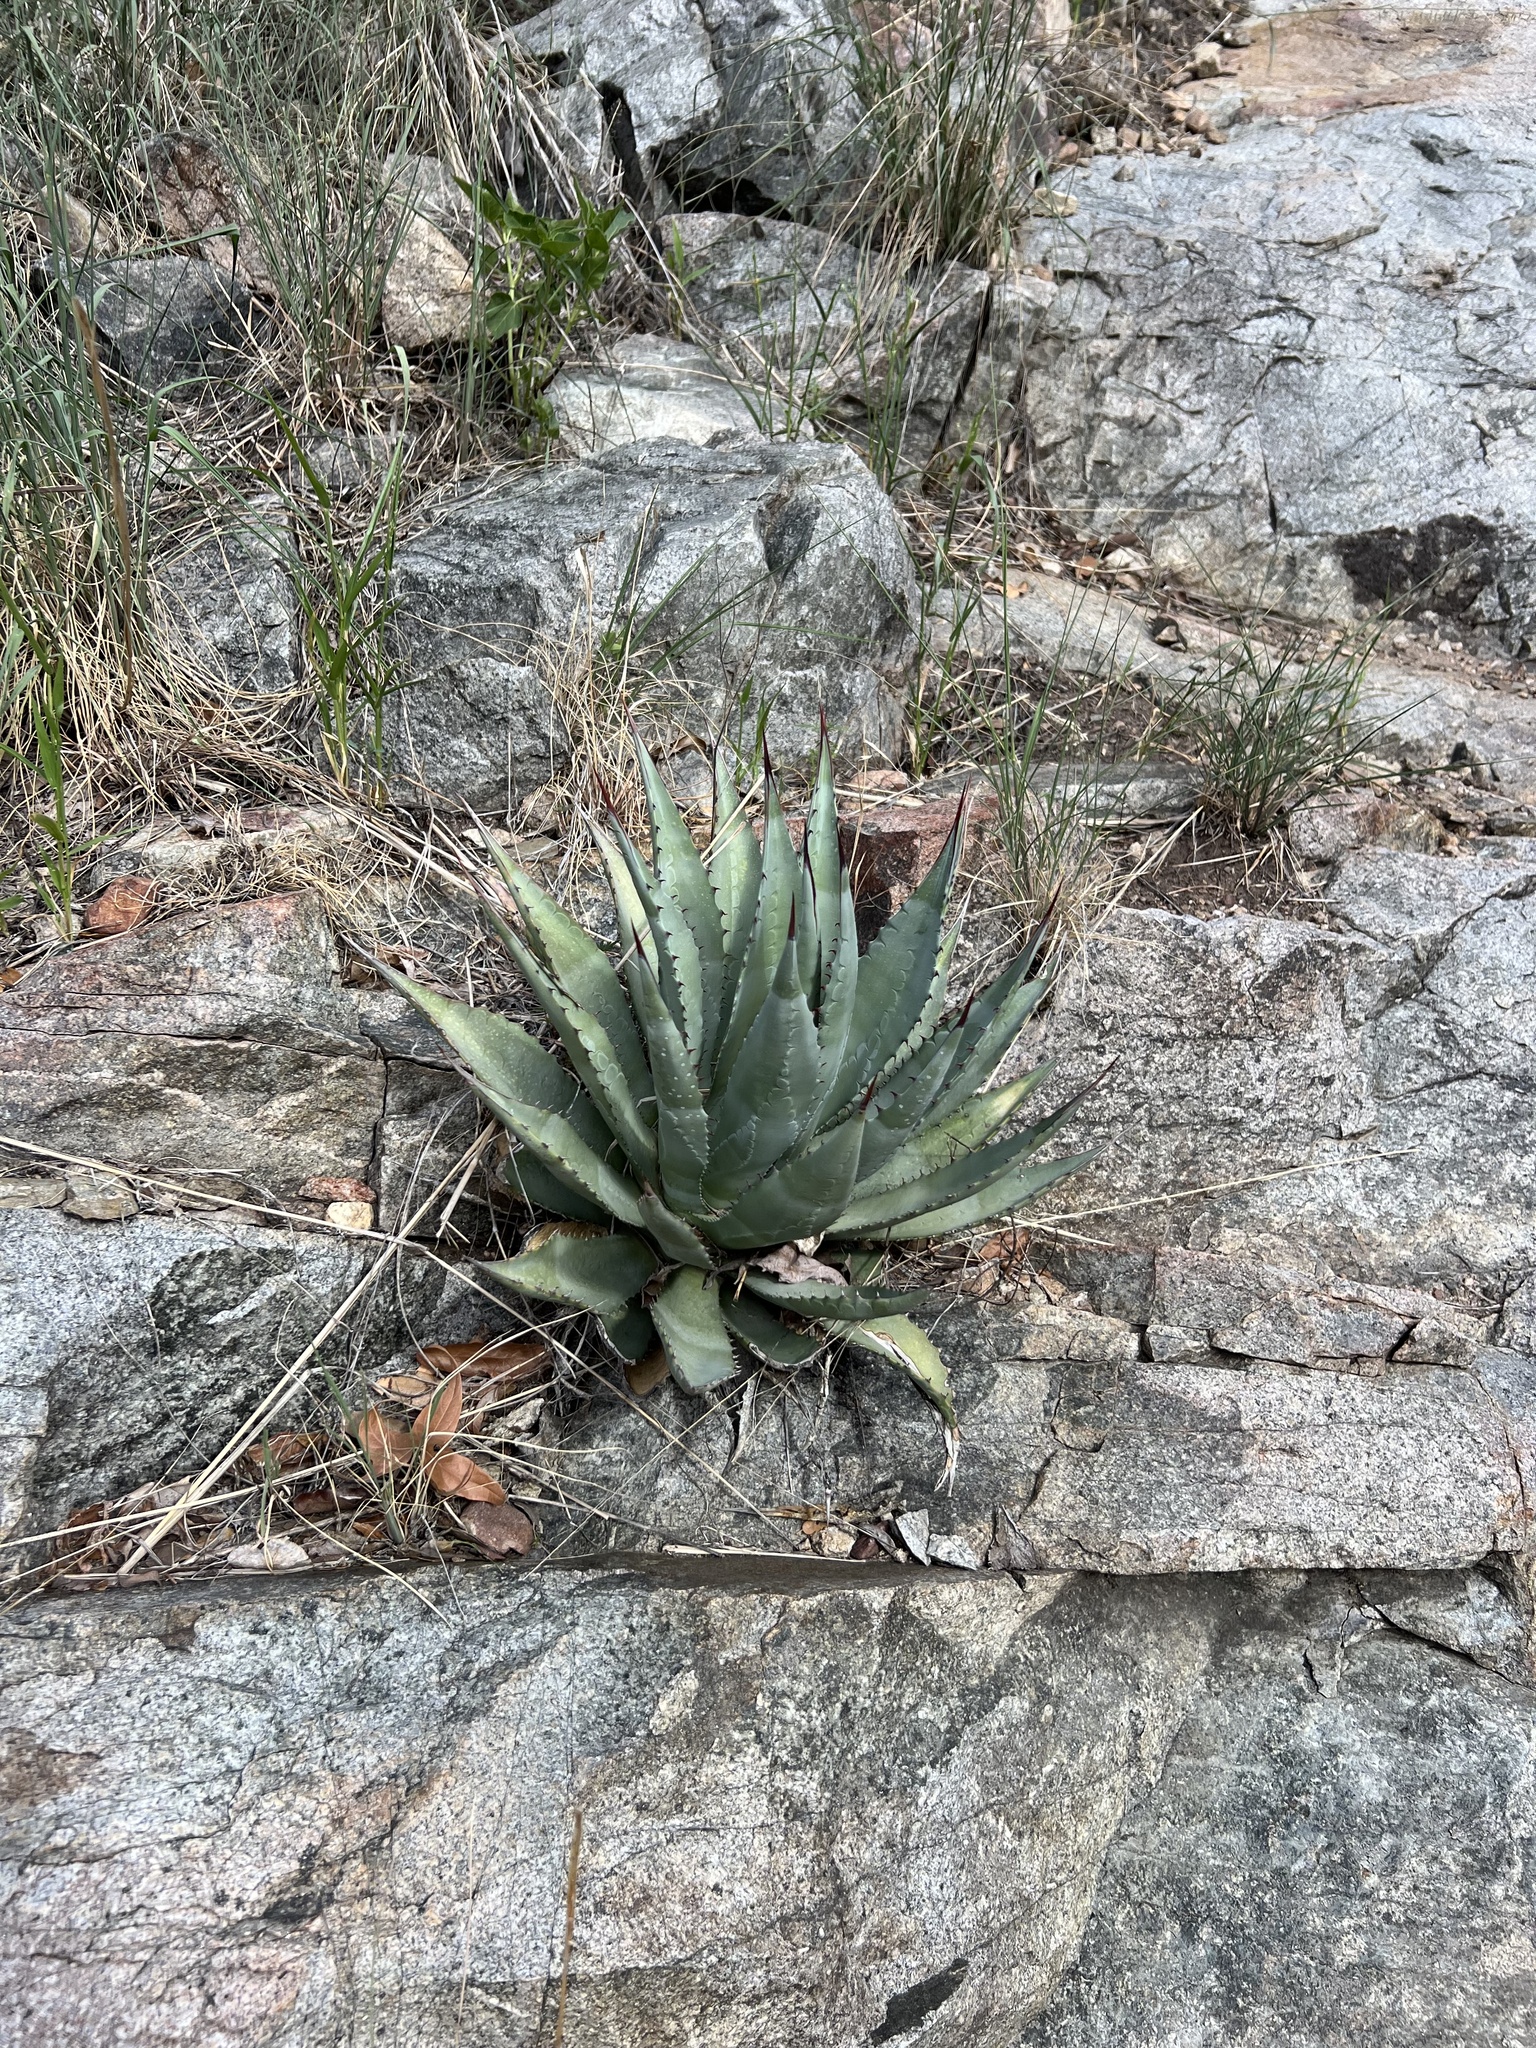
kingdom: Plantae
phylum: Tracheophyta
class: Liliopsida
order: Asparagales
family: Asparagaceae
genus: Agave
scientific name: Agave palmeri
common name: Palmer agave
